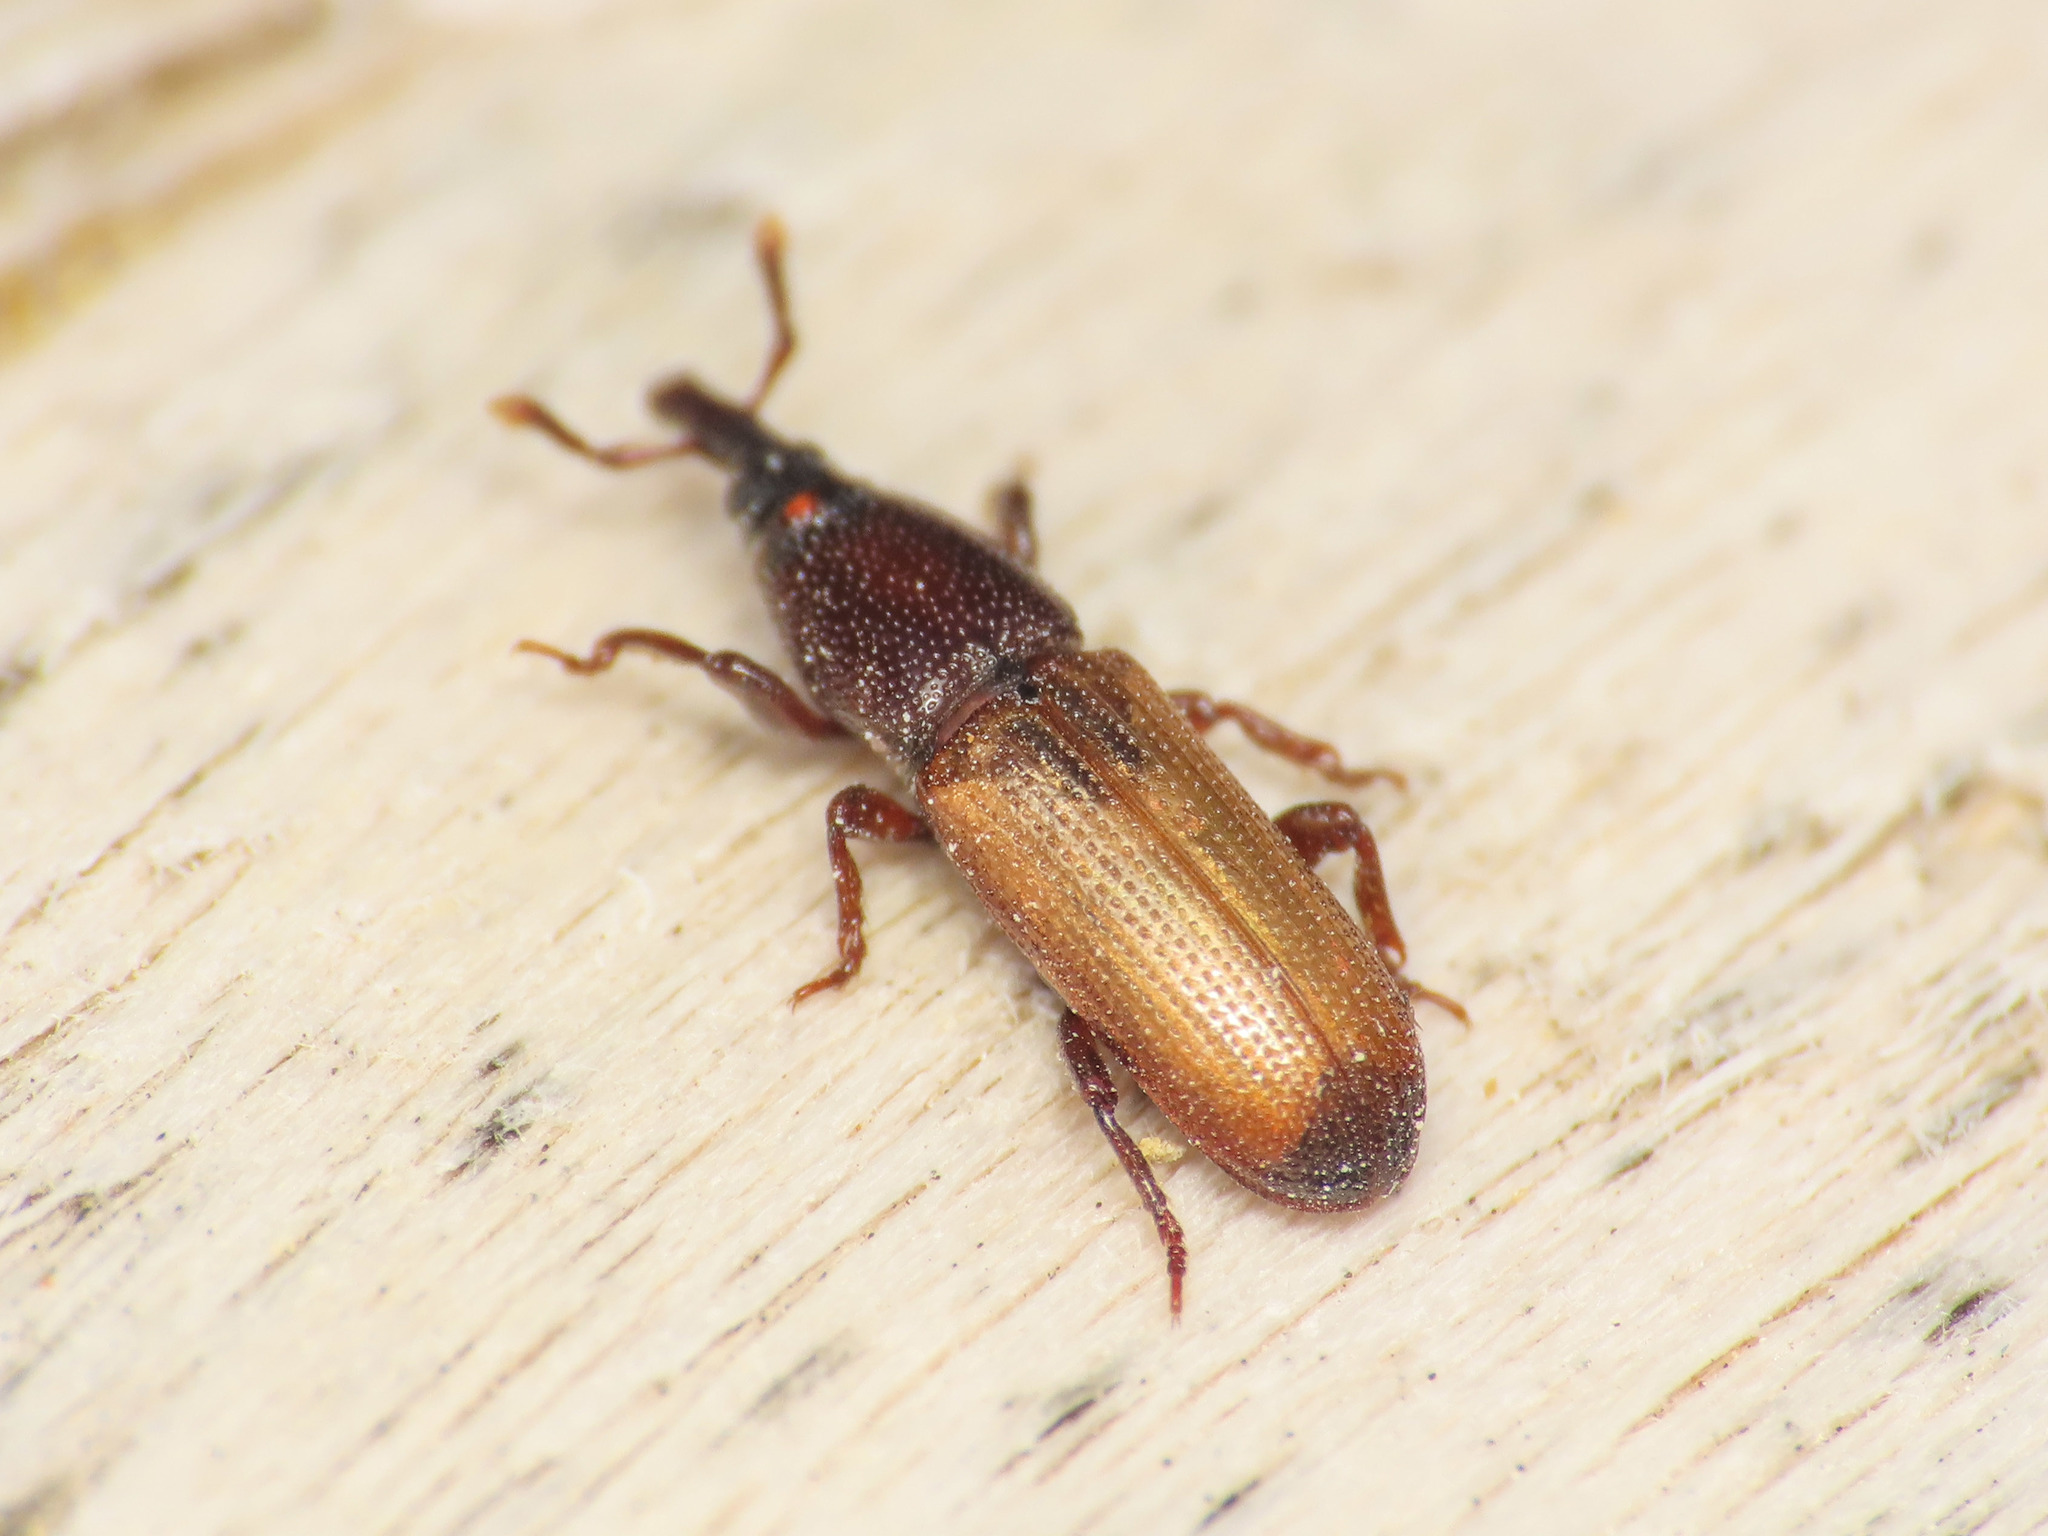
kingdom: Animalia
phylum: Arthropoda
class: Insecta
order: Coleoptera
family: Curculionidae
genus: Mesites
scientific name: Mesites pallidipennis
